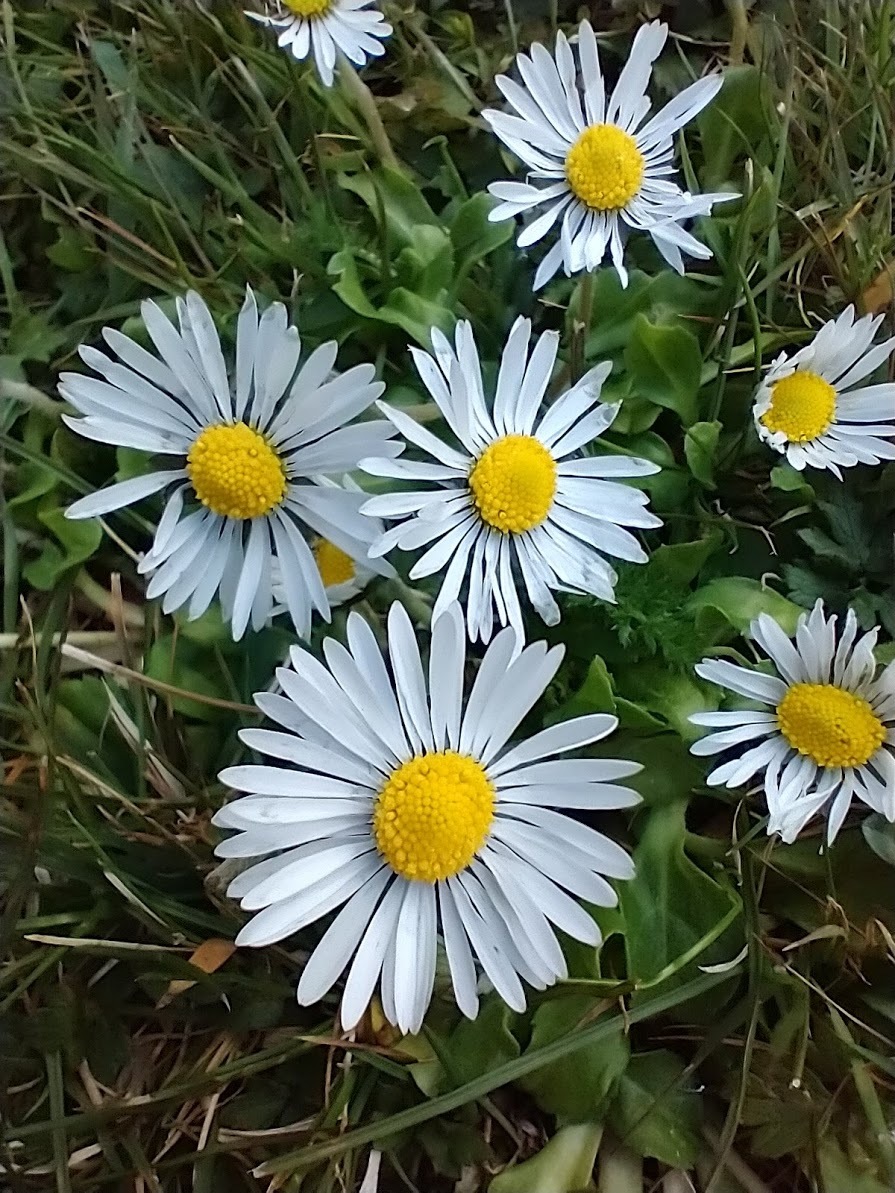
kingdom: Plantae
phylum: Tracheophyta
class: Magnoliopsida
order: Asterales
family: Asteraceae
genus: Bellis
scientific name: Bellis perennis
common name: Lawndaisy
